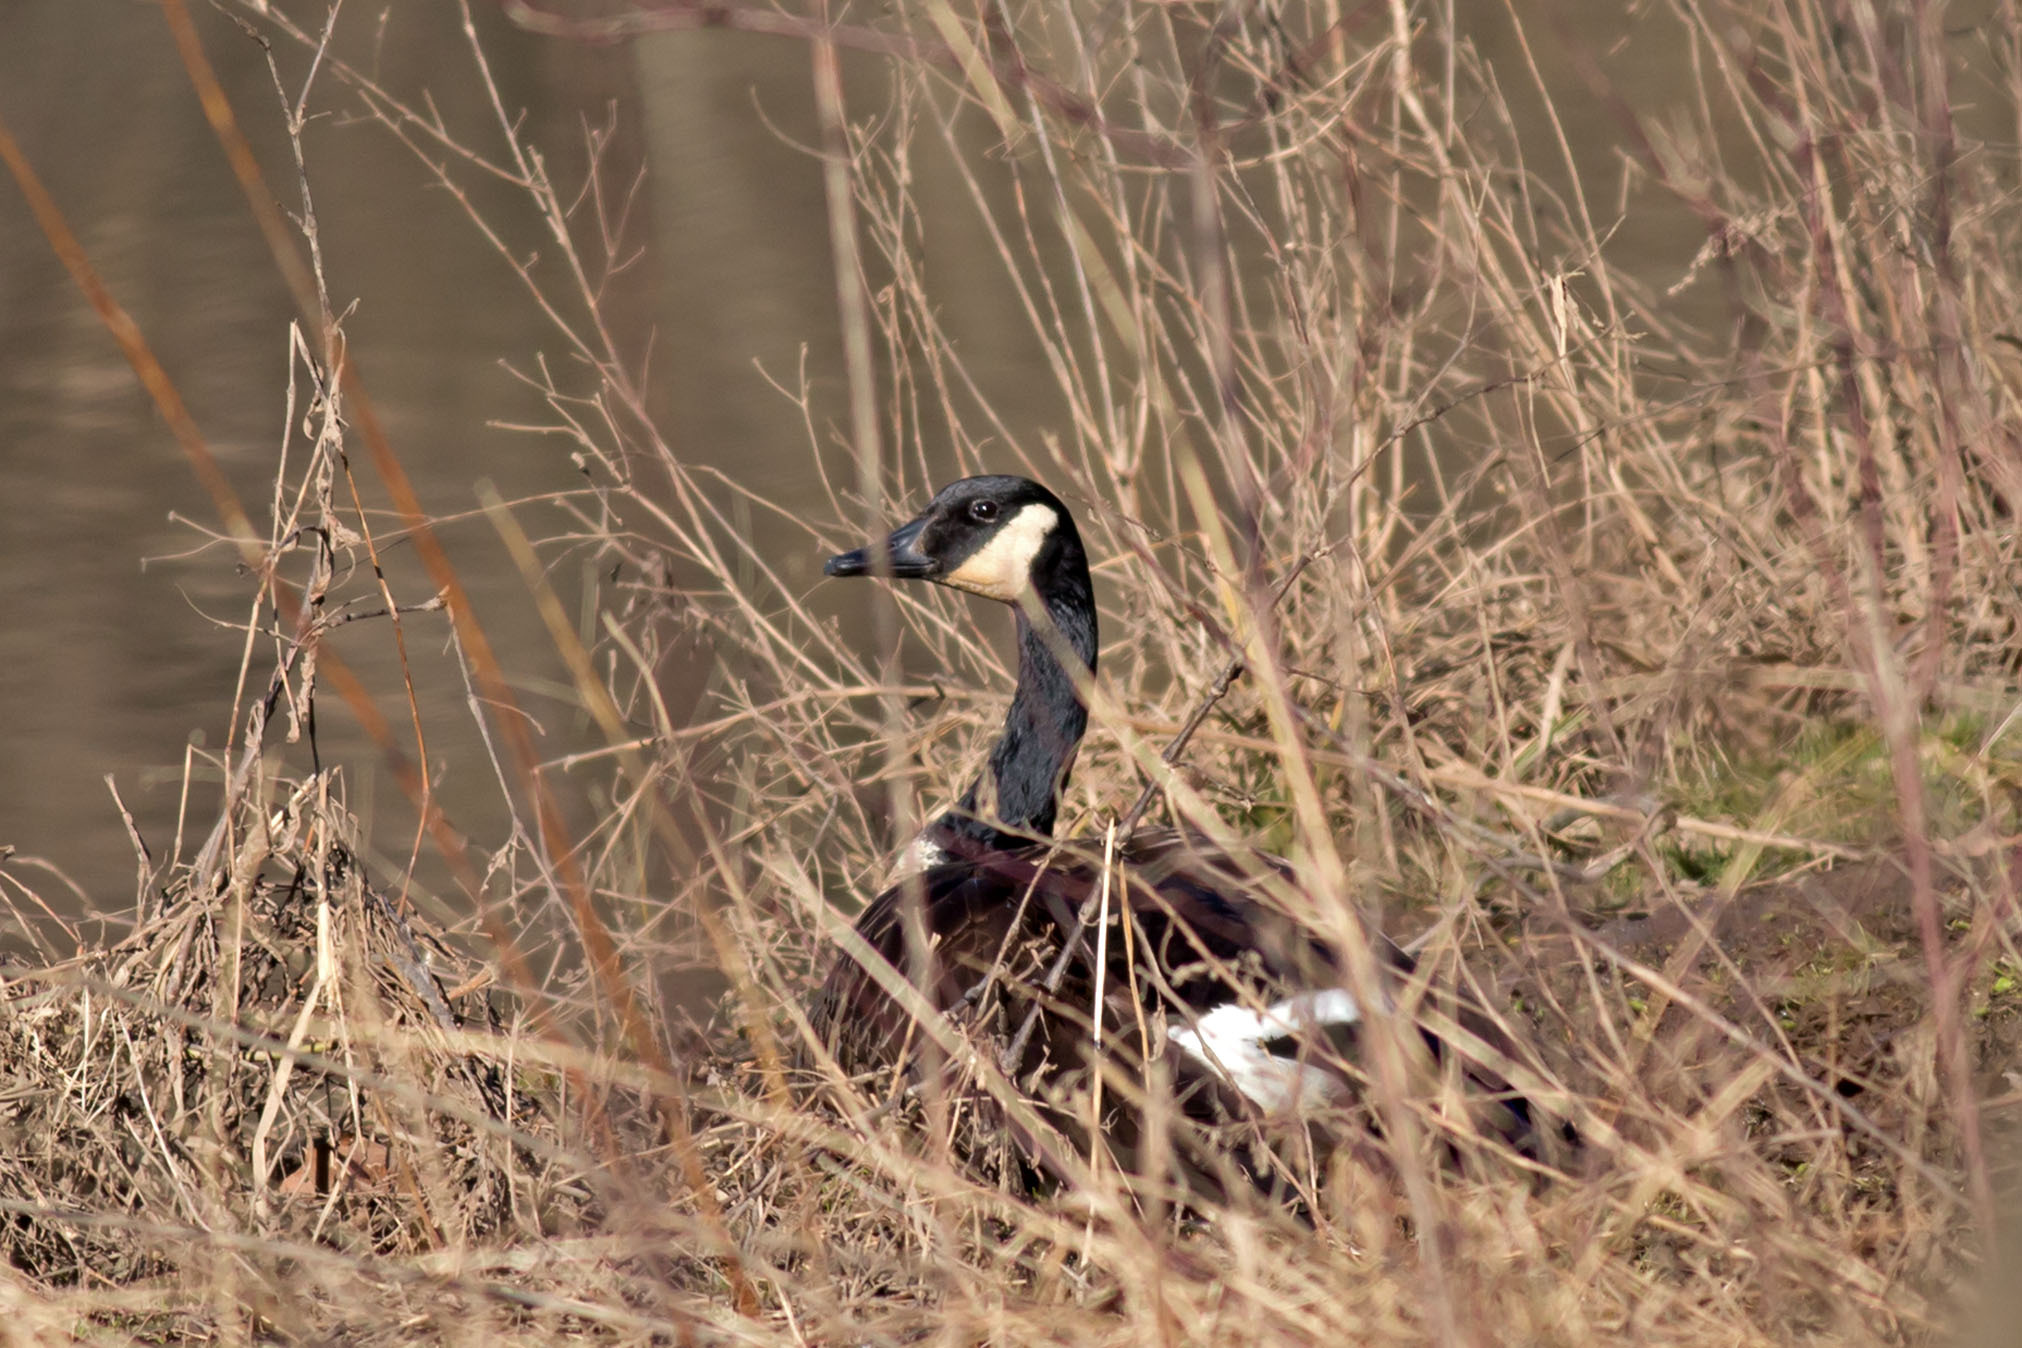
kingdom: Animalia
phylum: Chordata
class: Aves
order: Anseriformes
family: Anatidae
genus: Branta
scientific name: Branta canadensis
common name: Canada goose
